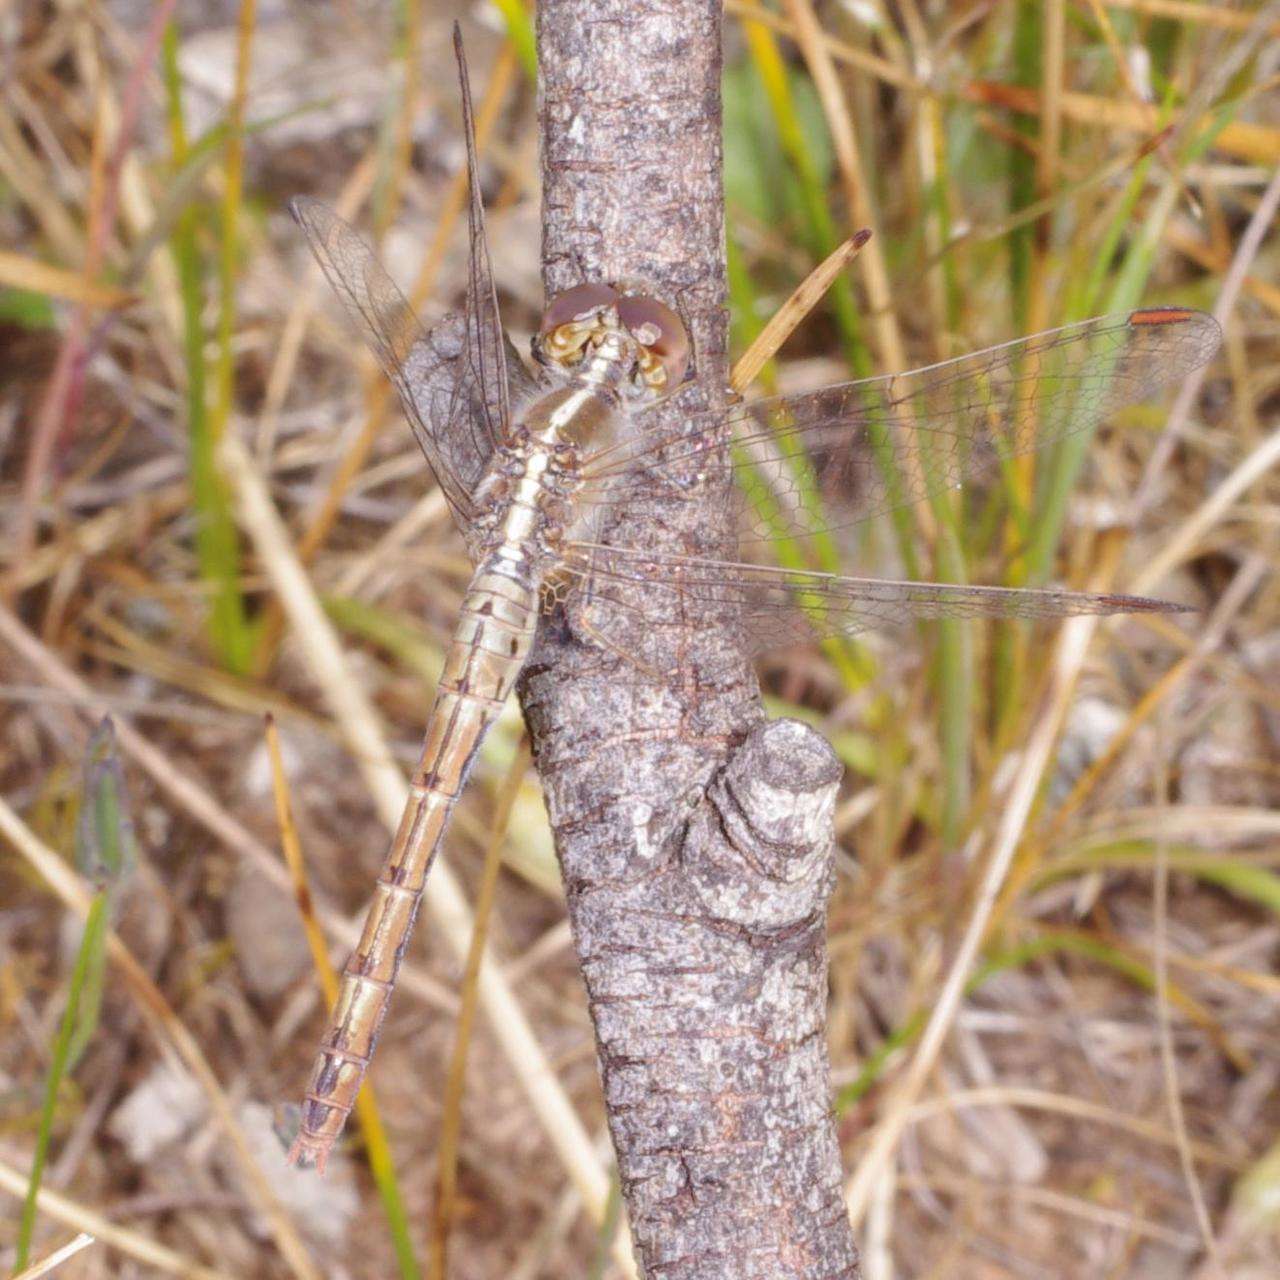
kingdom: Animalia
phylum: Arthropoda
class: Insecta
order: Odonata
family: Libellulidae
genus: Diplacodes
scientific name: Diplacodes bipunctata
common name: Red percher dragonfly
